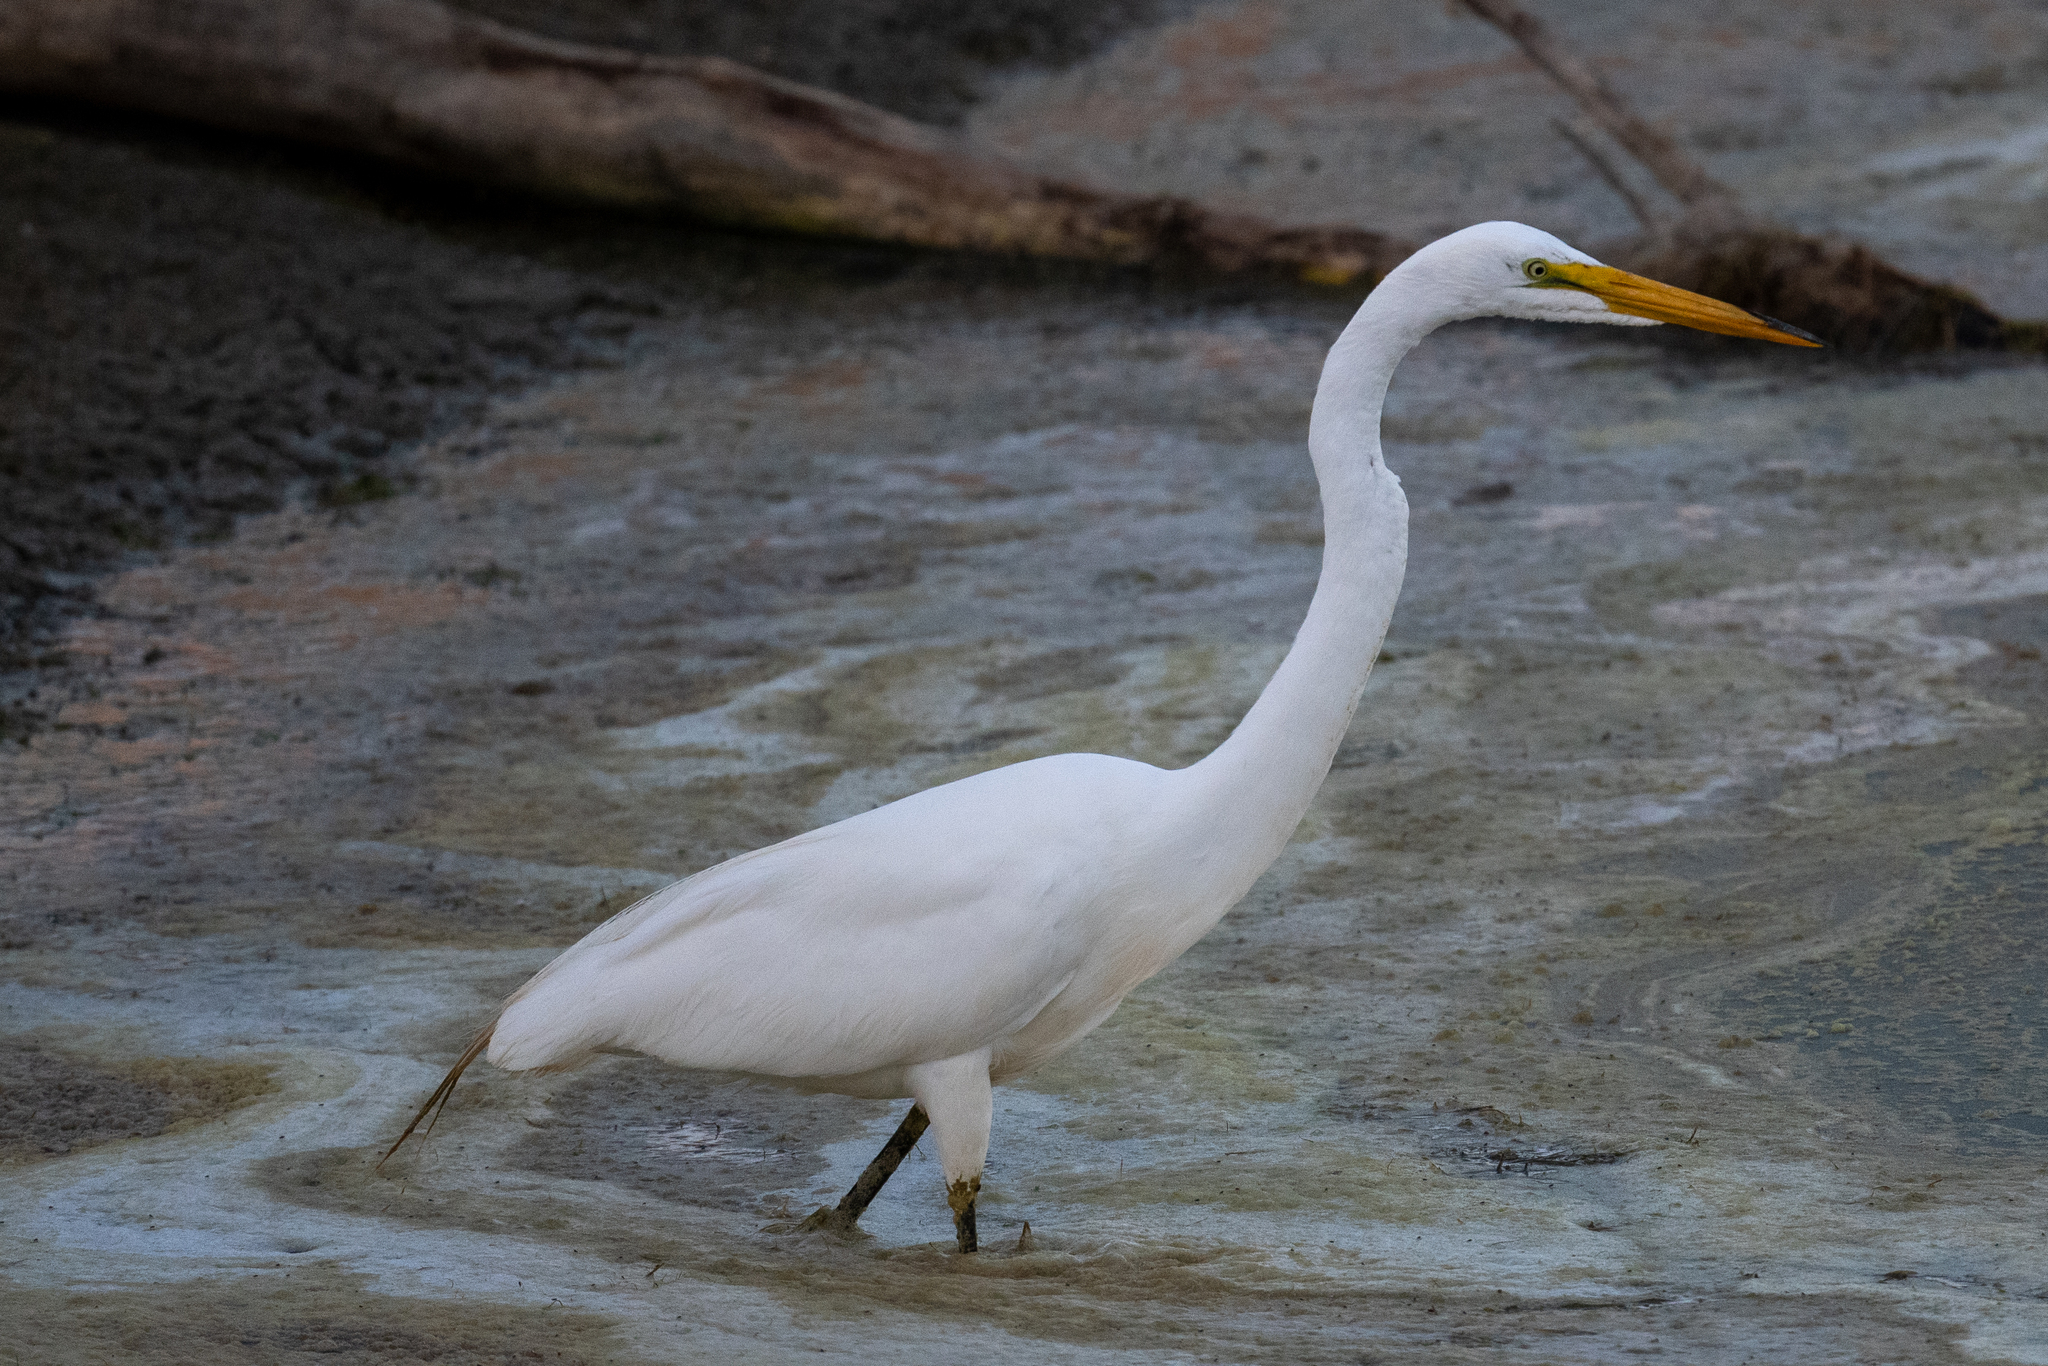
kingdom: Animalia
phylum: Chordata
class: Aves
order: Pelecaniformes
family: Ardeidae
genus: Ardea
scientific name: Ardea alba
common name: Great egret
